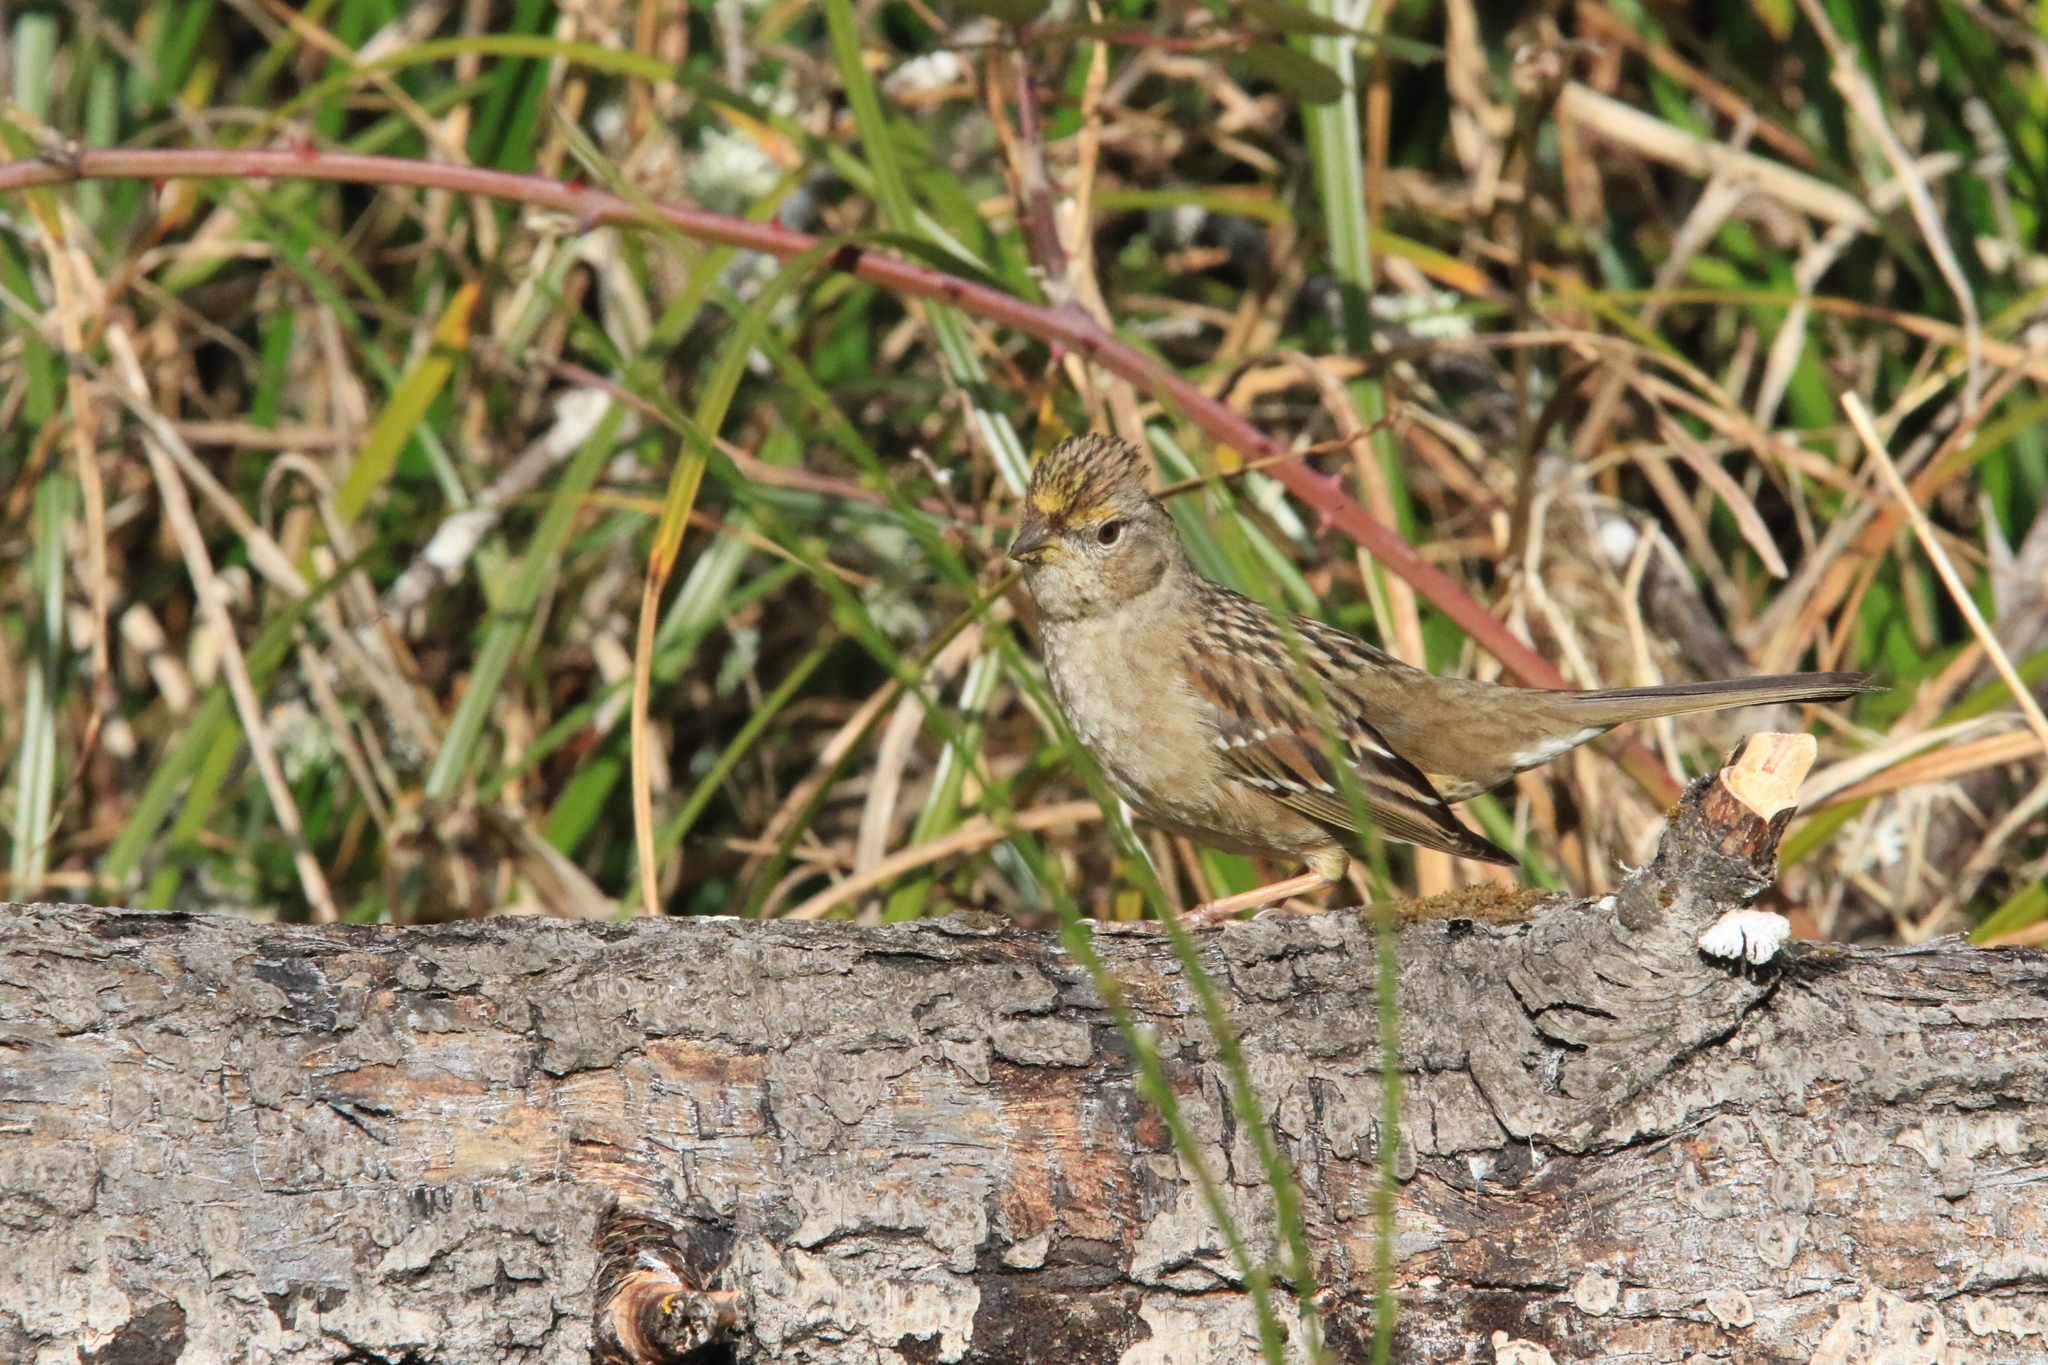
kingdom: Animalia
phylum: Chordata
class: Aves
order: Passeriformes
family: Passerellidae
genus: Zonotrichia
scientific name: Zonotrichia atricapilla
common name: Golden-crowned sparrow
